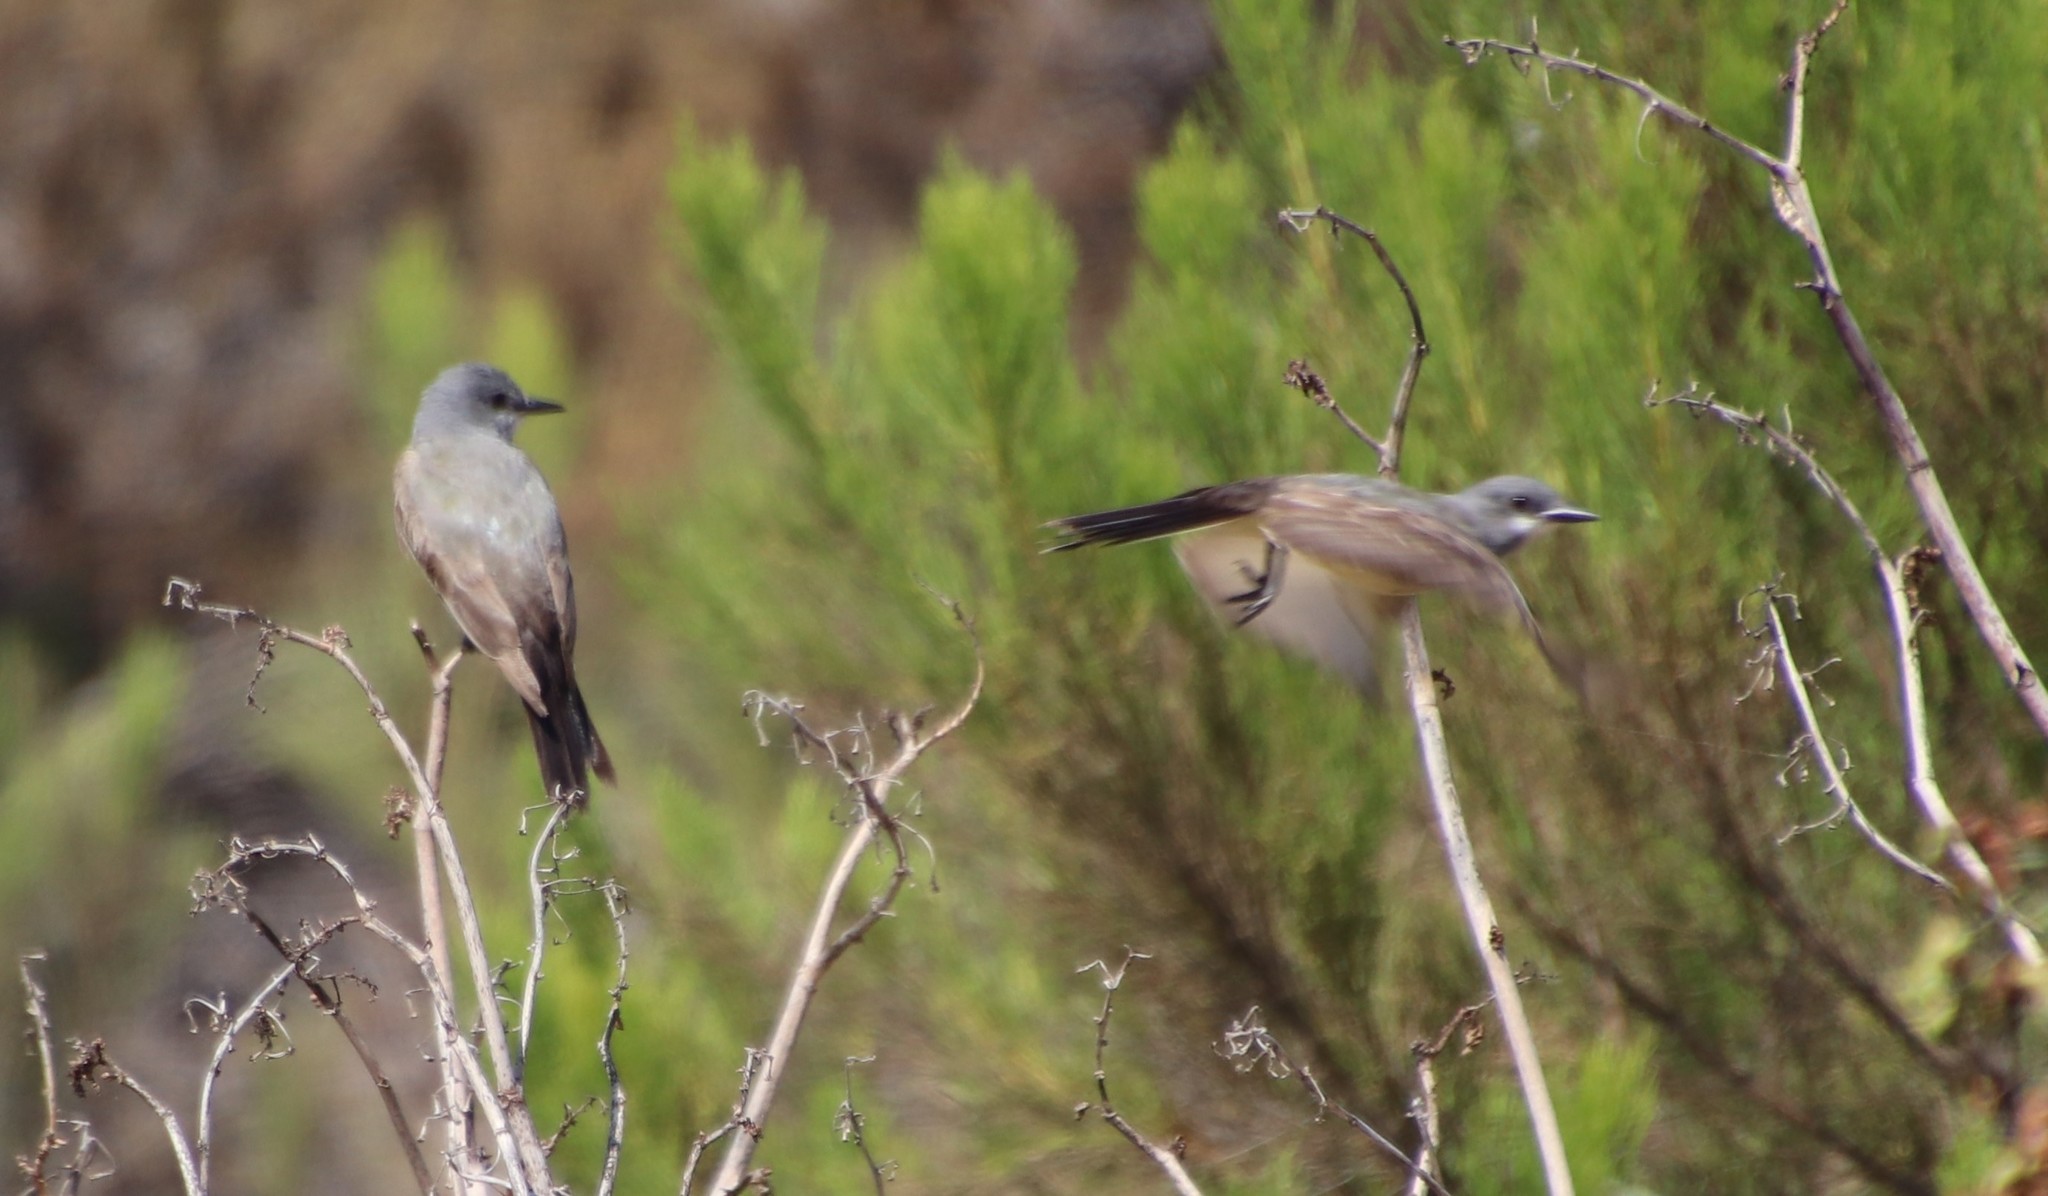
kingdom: Animalia
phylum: Chordata
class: Aves
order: Passeriformes
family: Tyrannidae
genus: Tyrannus
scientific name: Tyrannus vociferans
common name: Cassin's kingbird
